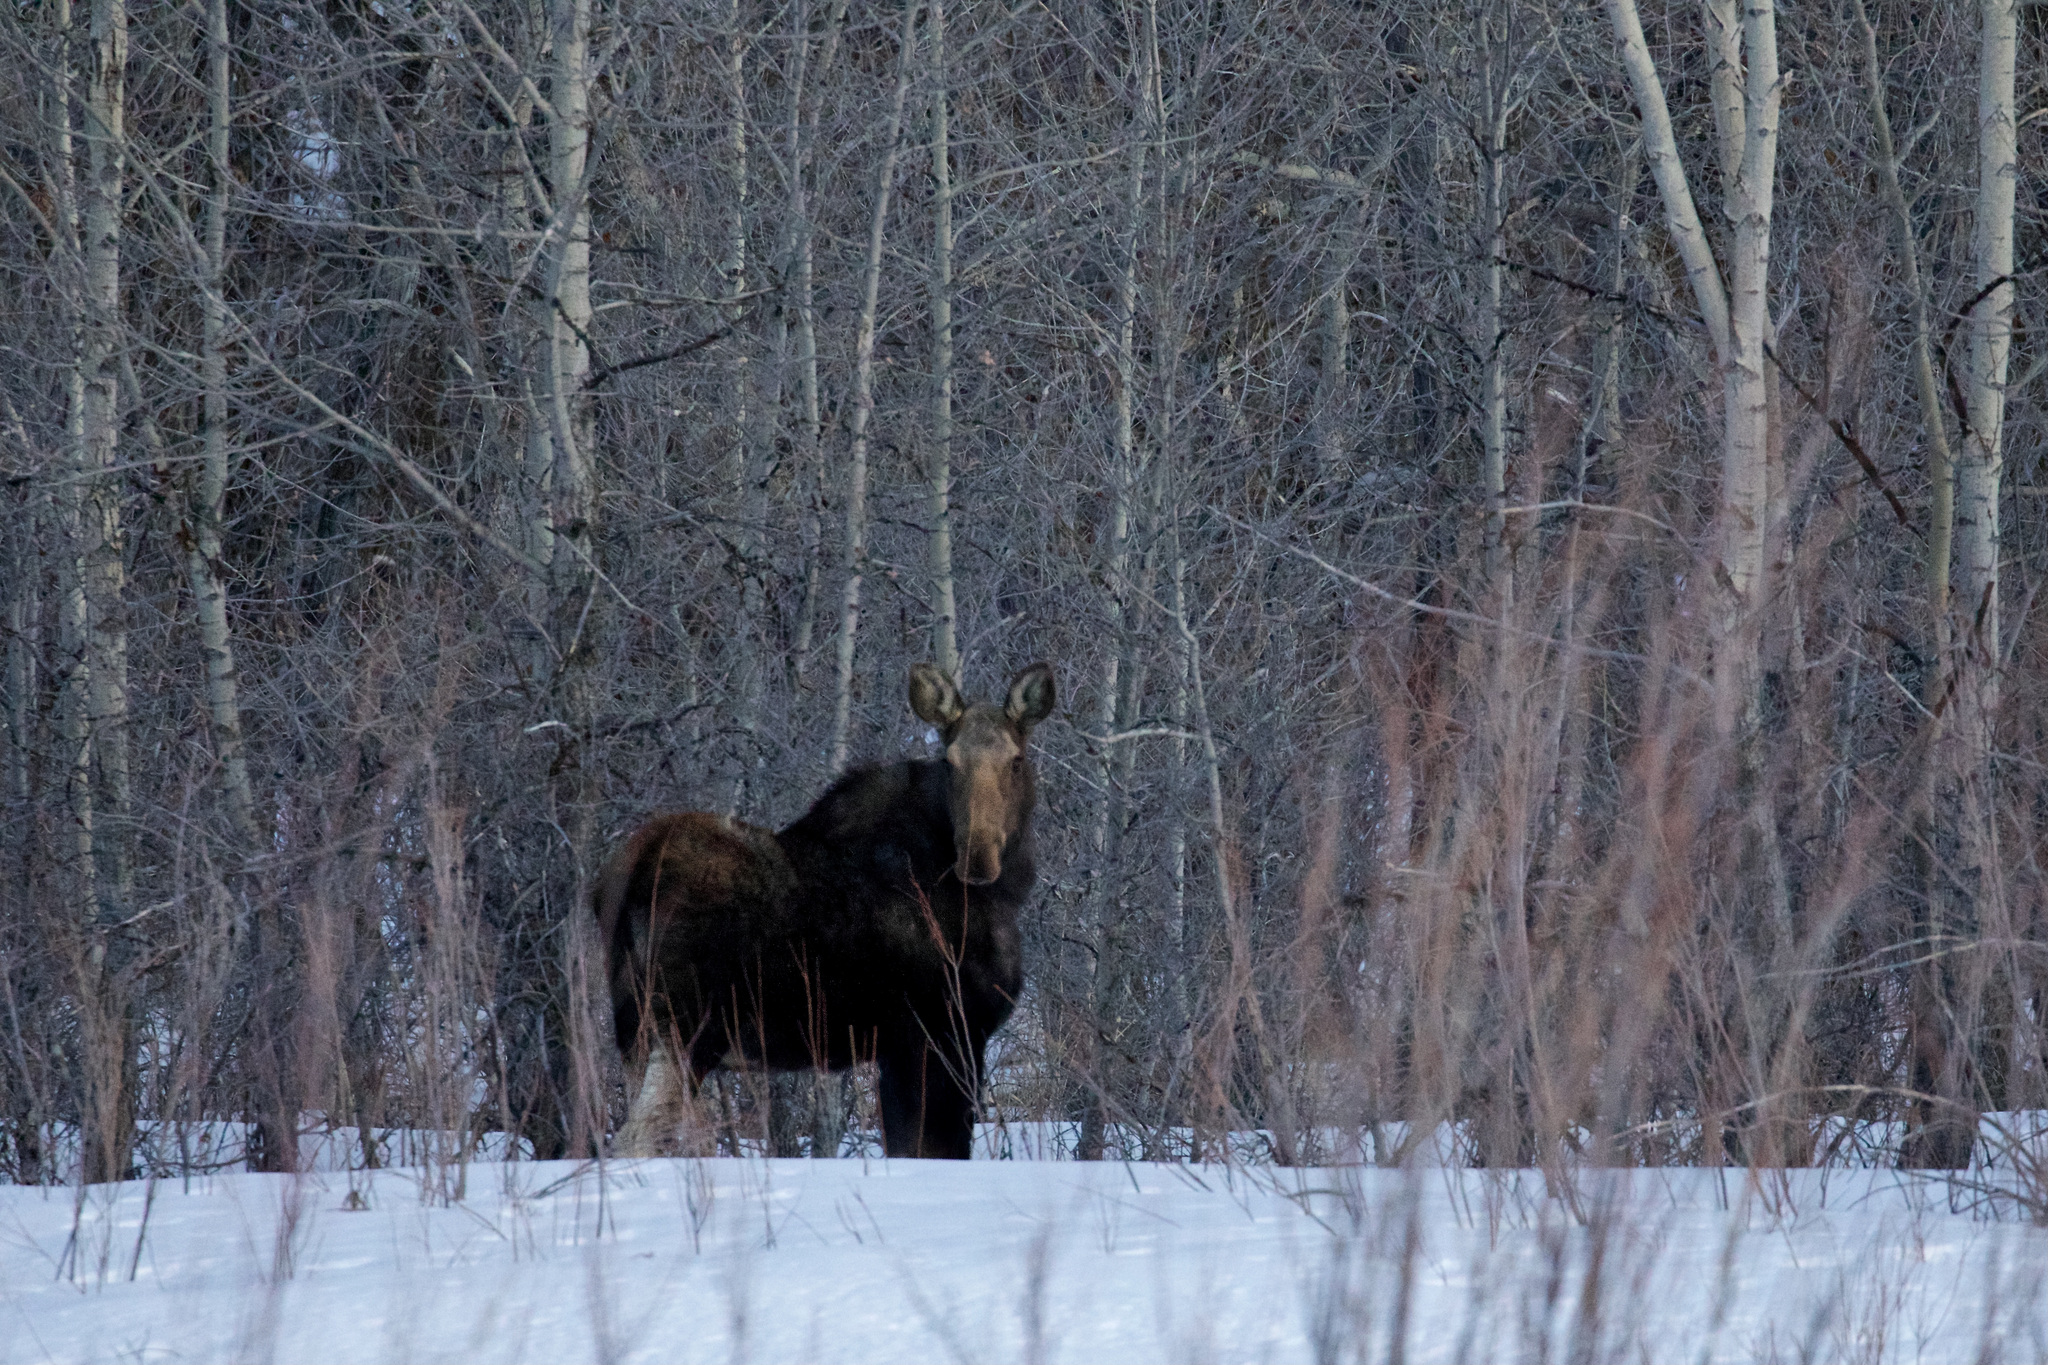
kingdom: Animalia
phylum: Chordata
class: Mammalia
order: Artiodactyla
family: Cervidae
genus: Alces
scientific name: Alces alces
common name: Moose
